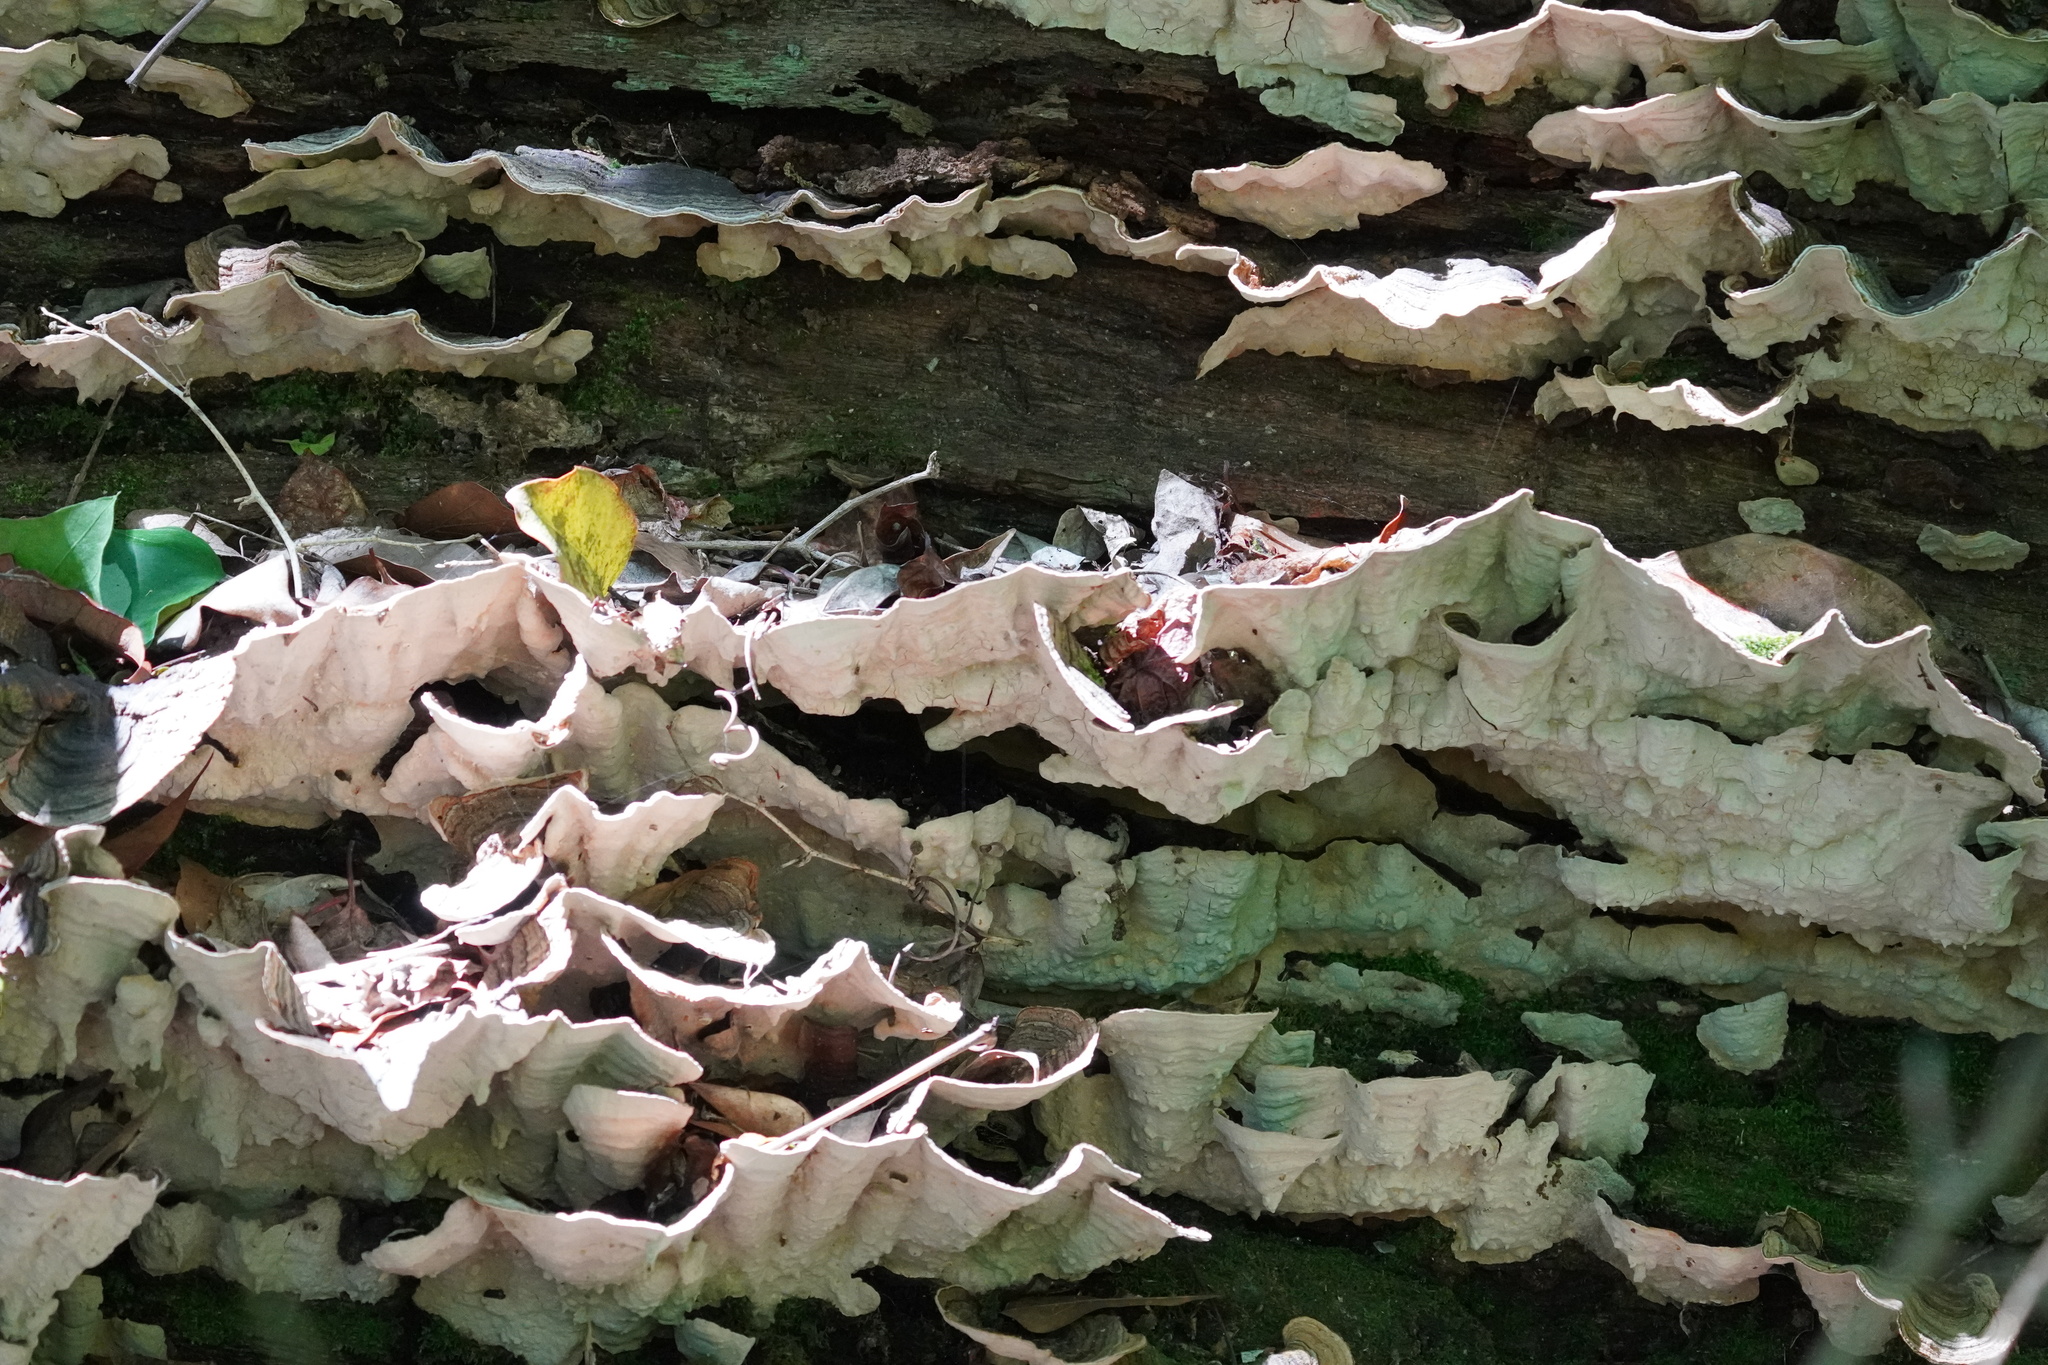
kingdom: Fungi
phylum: Basidiomycota
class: Agaricomycetes
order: Russulales
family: Stereaceae
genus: Xylobolus
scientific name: Xylobolus subpileatus
